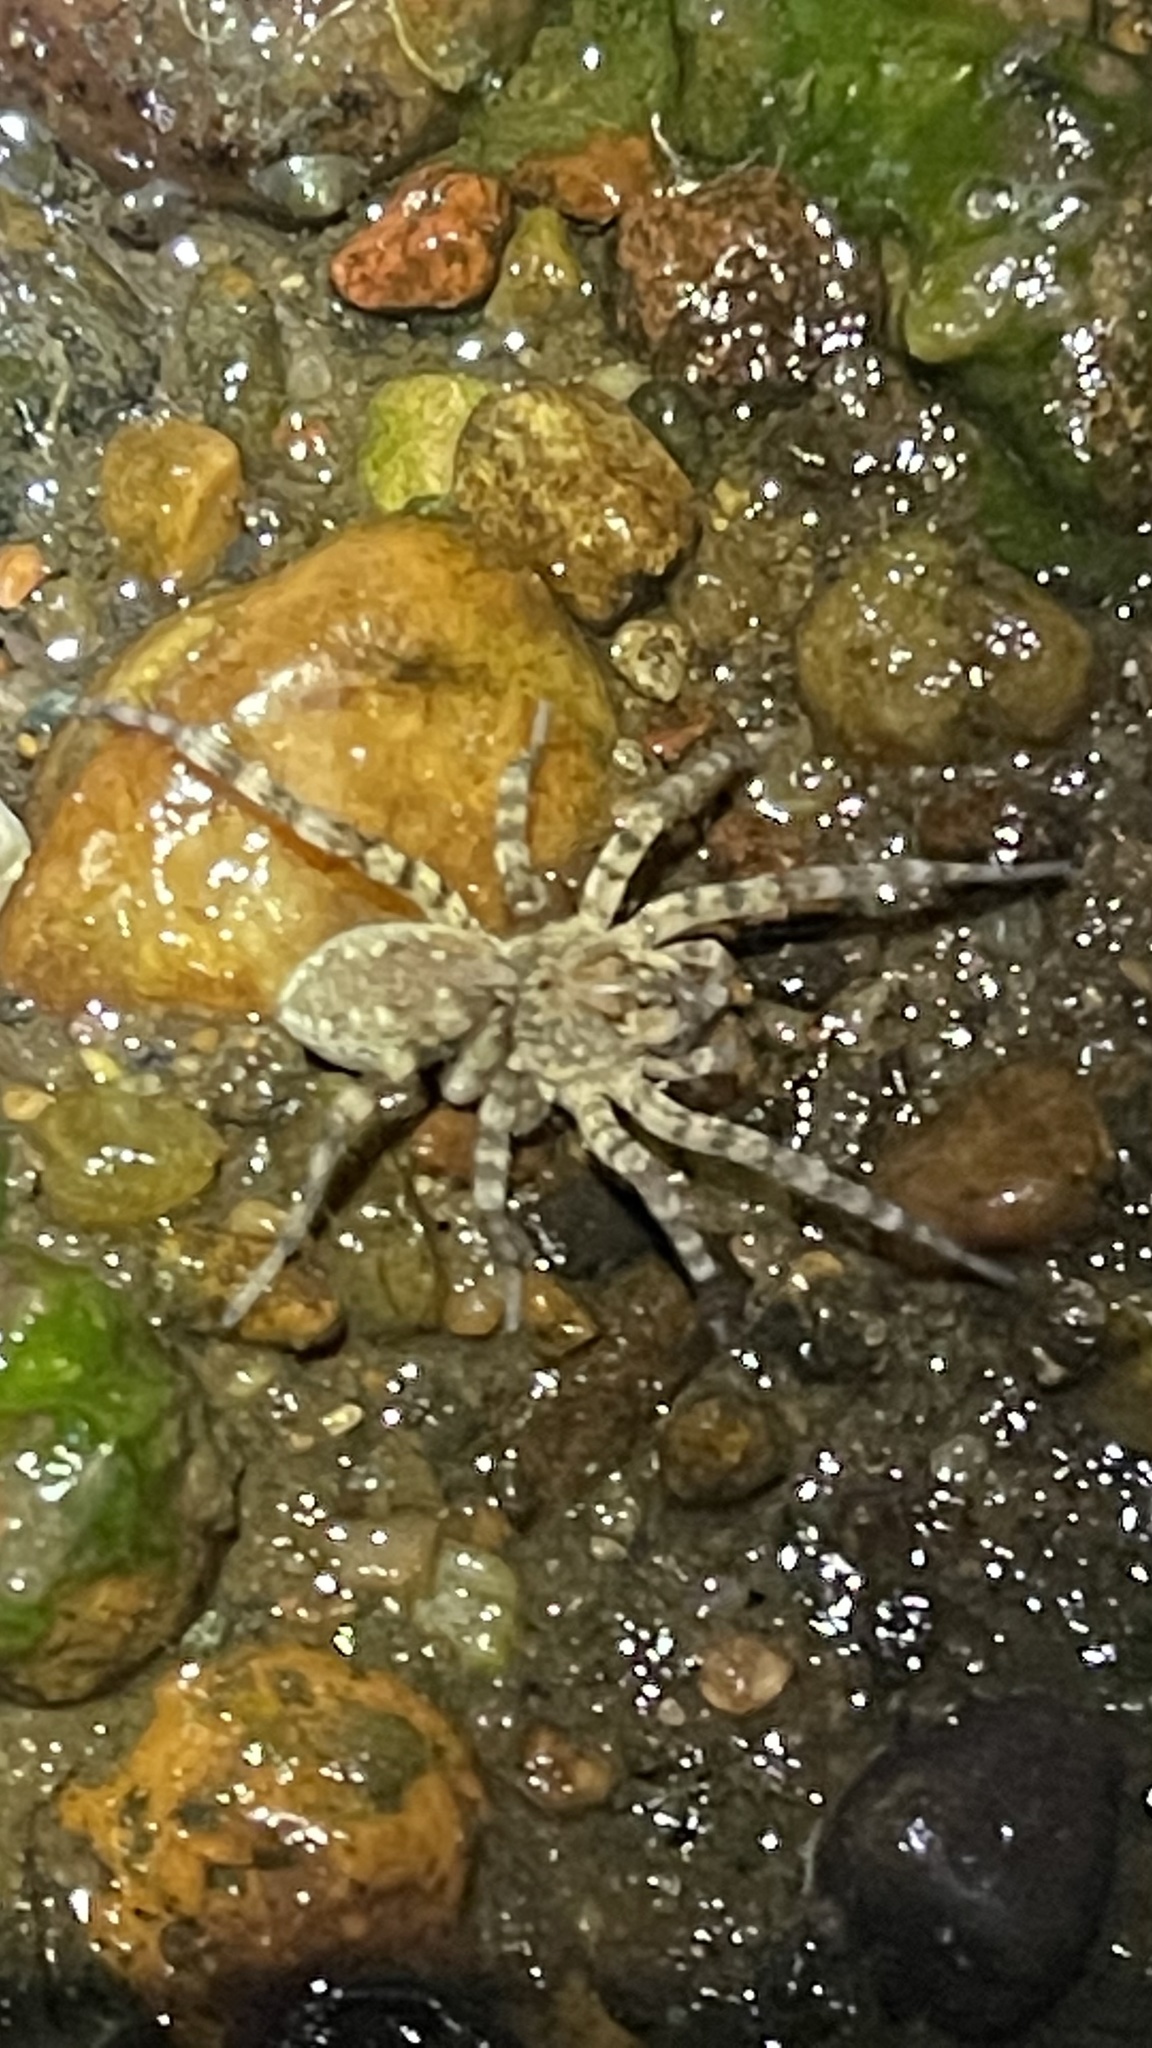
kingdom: Animalia
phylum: Arthropoda
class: Arachnida
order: Araneae
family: Lycosidae
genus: Arctosa
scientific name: Arctosa littoralis
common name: Wolf spiders
